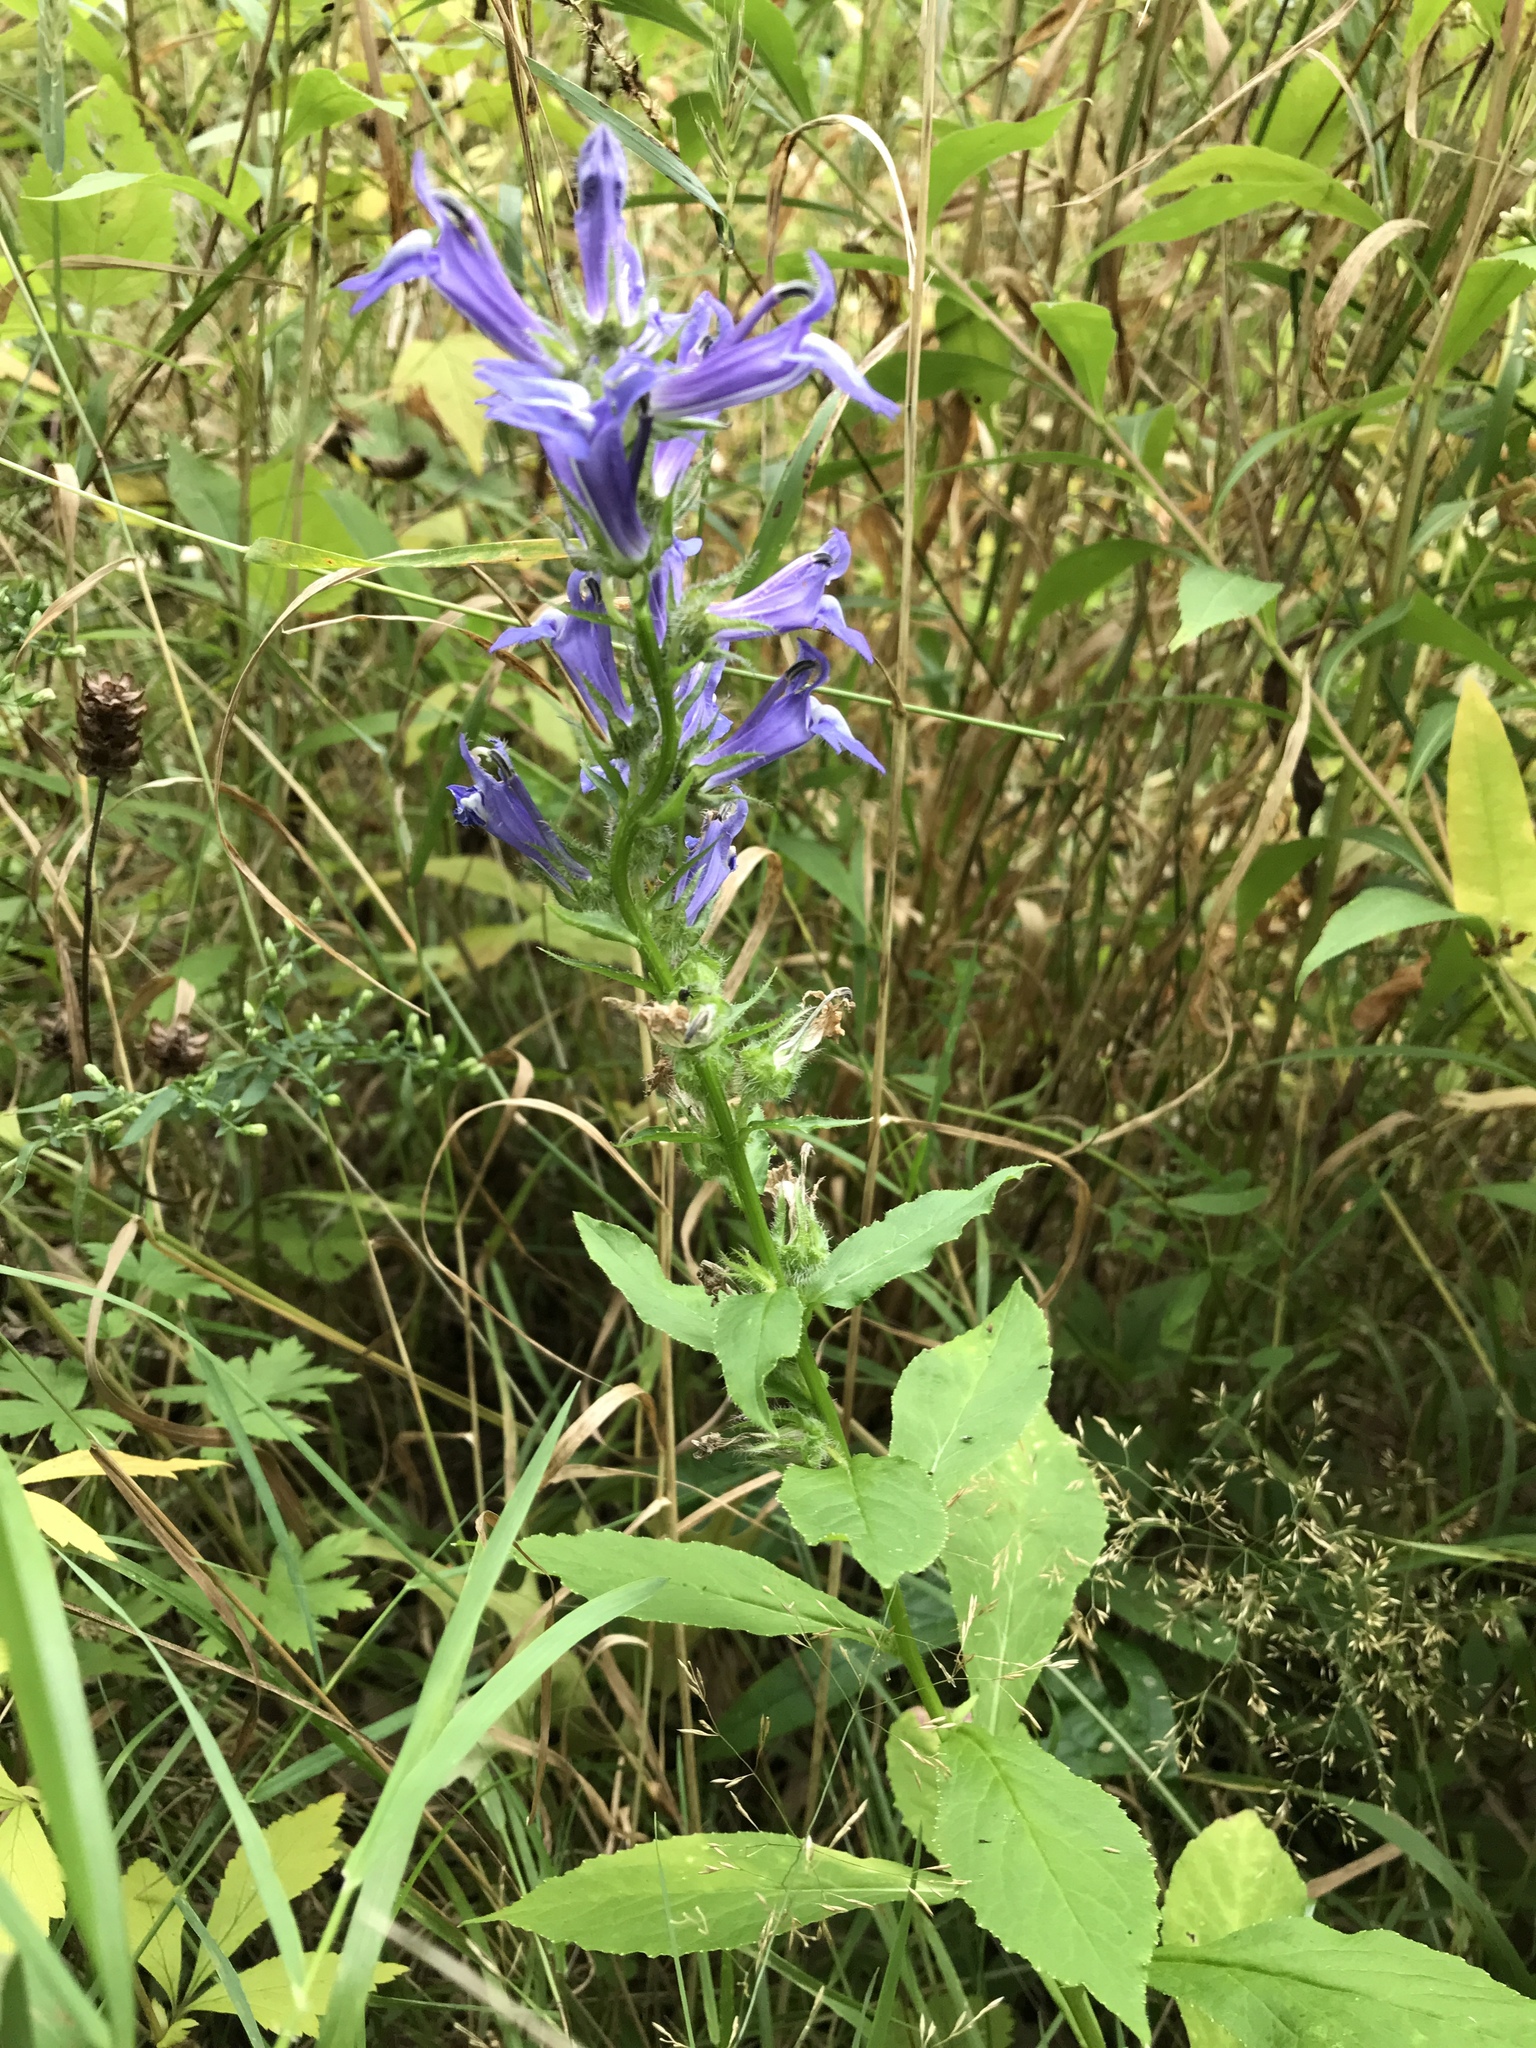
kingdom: Plantae
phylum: Tracheophyta
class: Magnoliopsida
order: Asterales
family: Campanulaceae
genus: Lobelia
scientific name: Lobelia siphilitica
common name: Great lobelia
